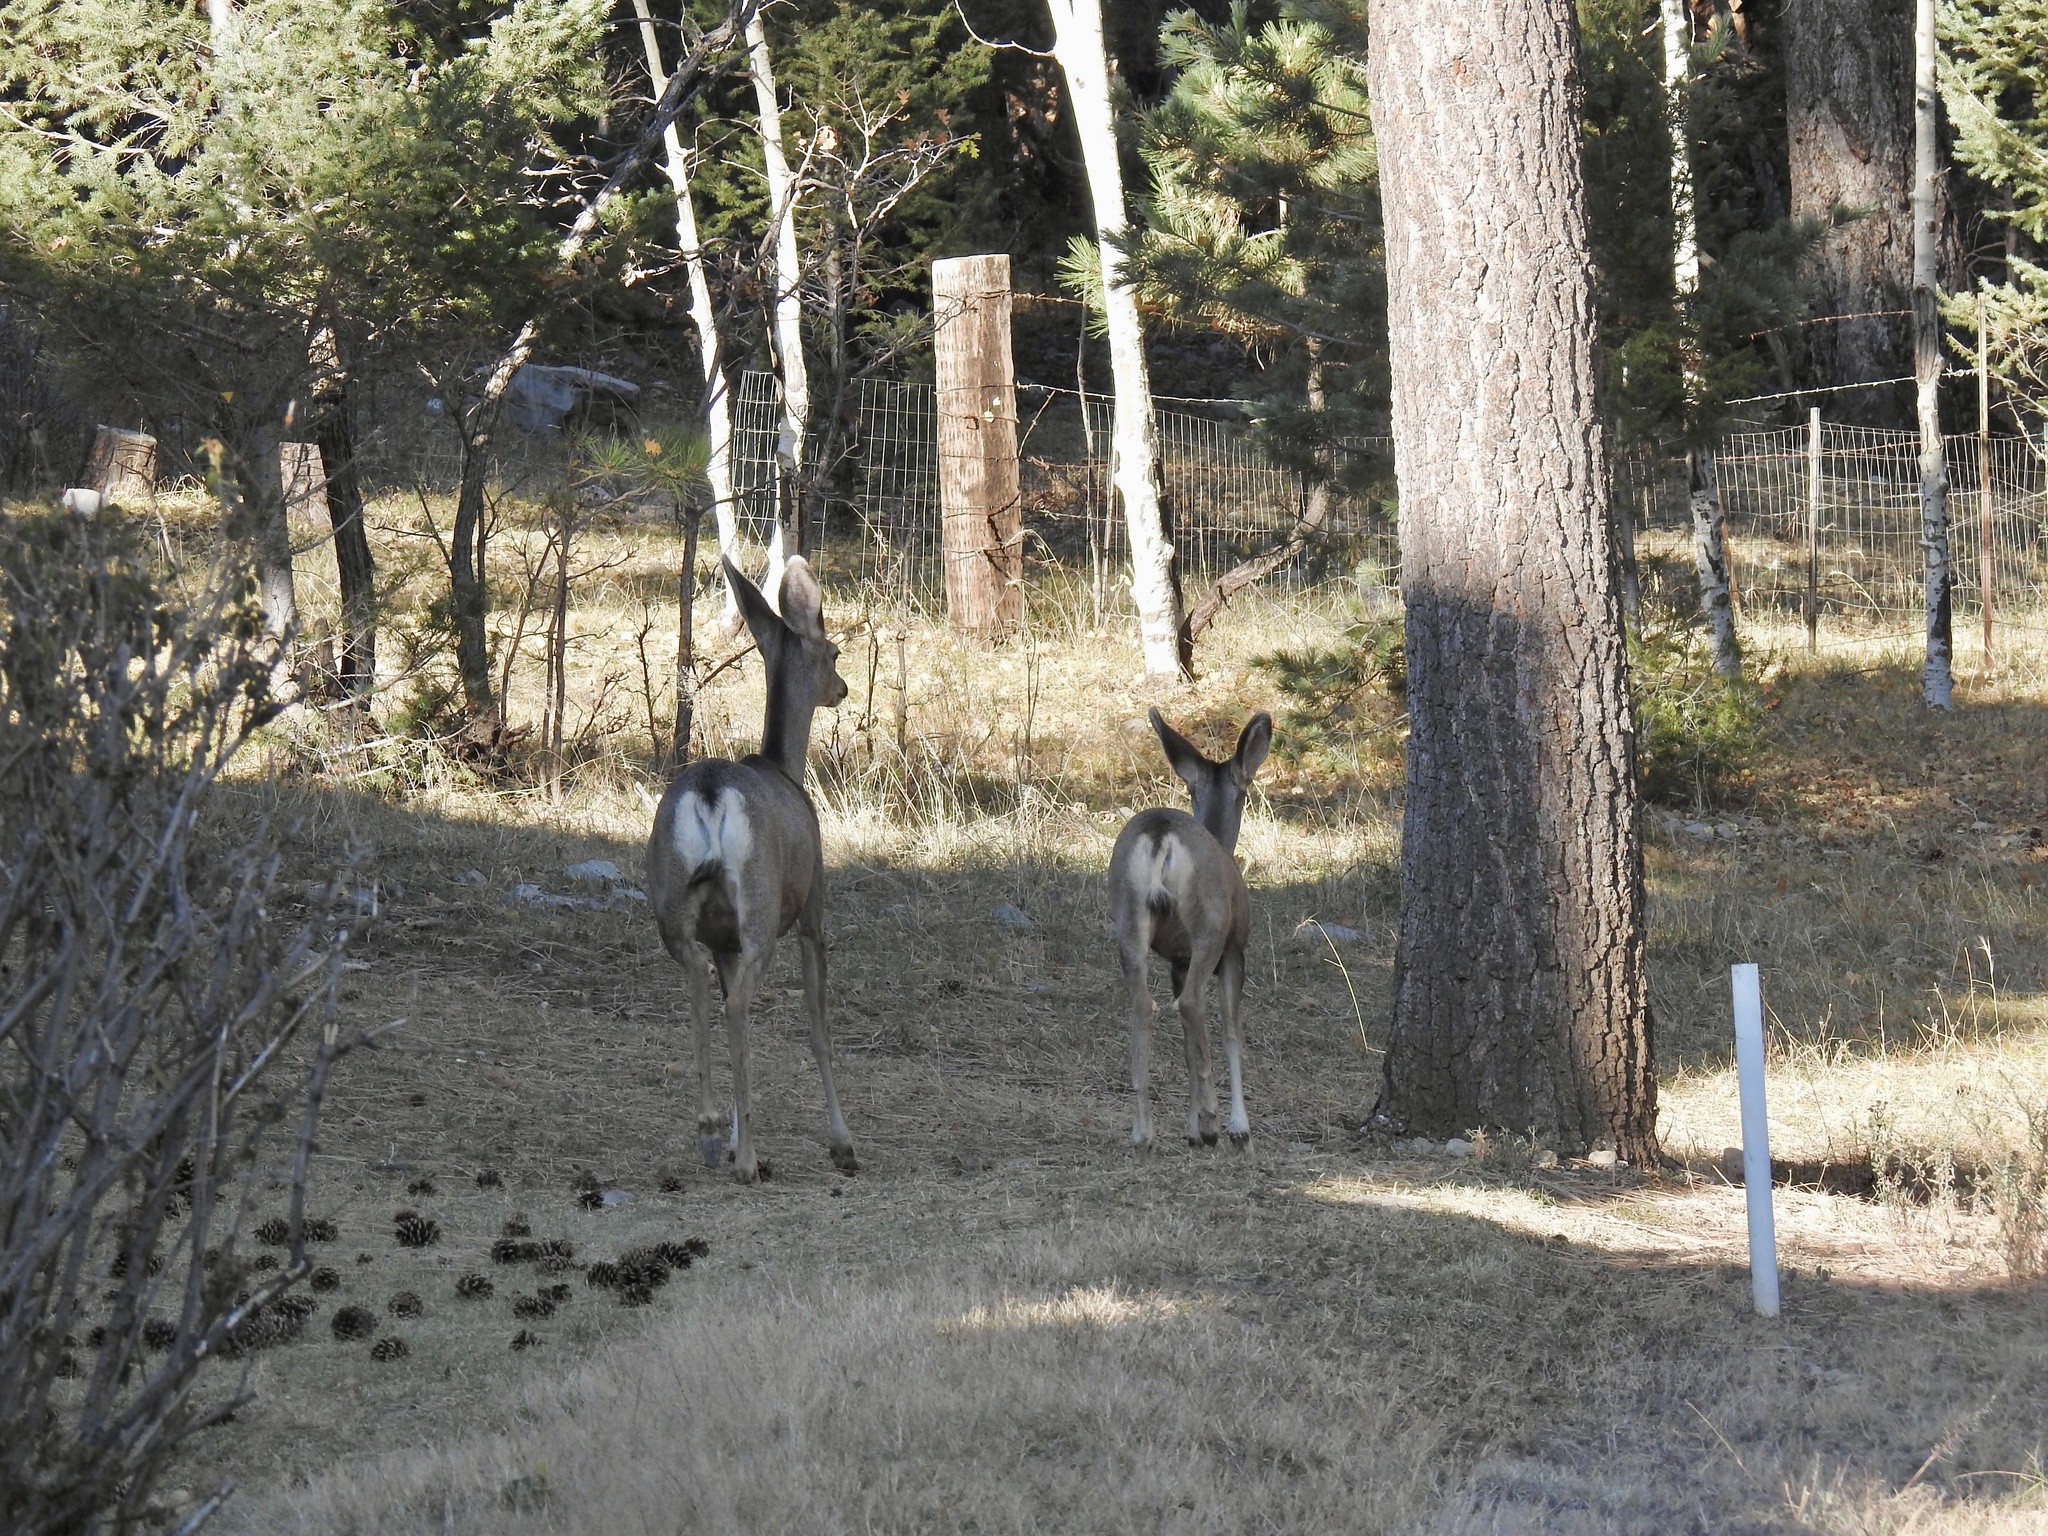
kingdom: Animalia
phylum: Chordata
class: Mammalia
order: Artiodactyla
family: Cervidae
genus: Odocoileus
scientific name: Odocoileus hemionus
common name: Mule deer
